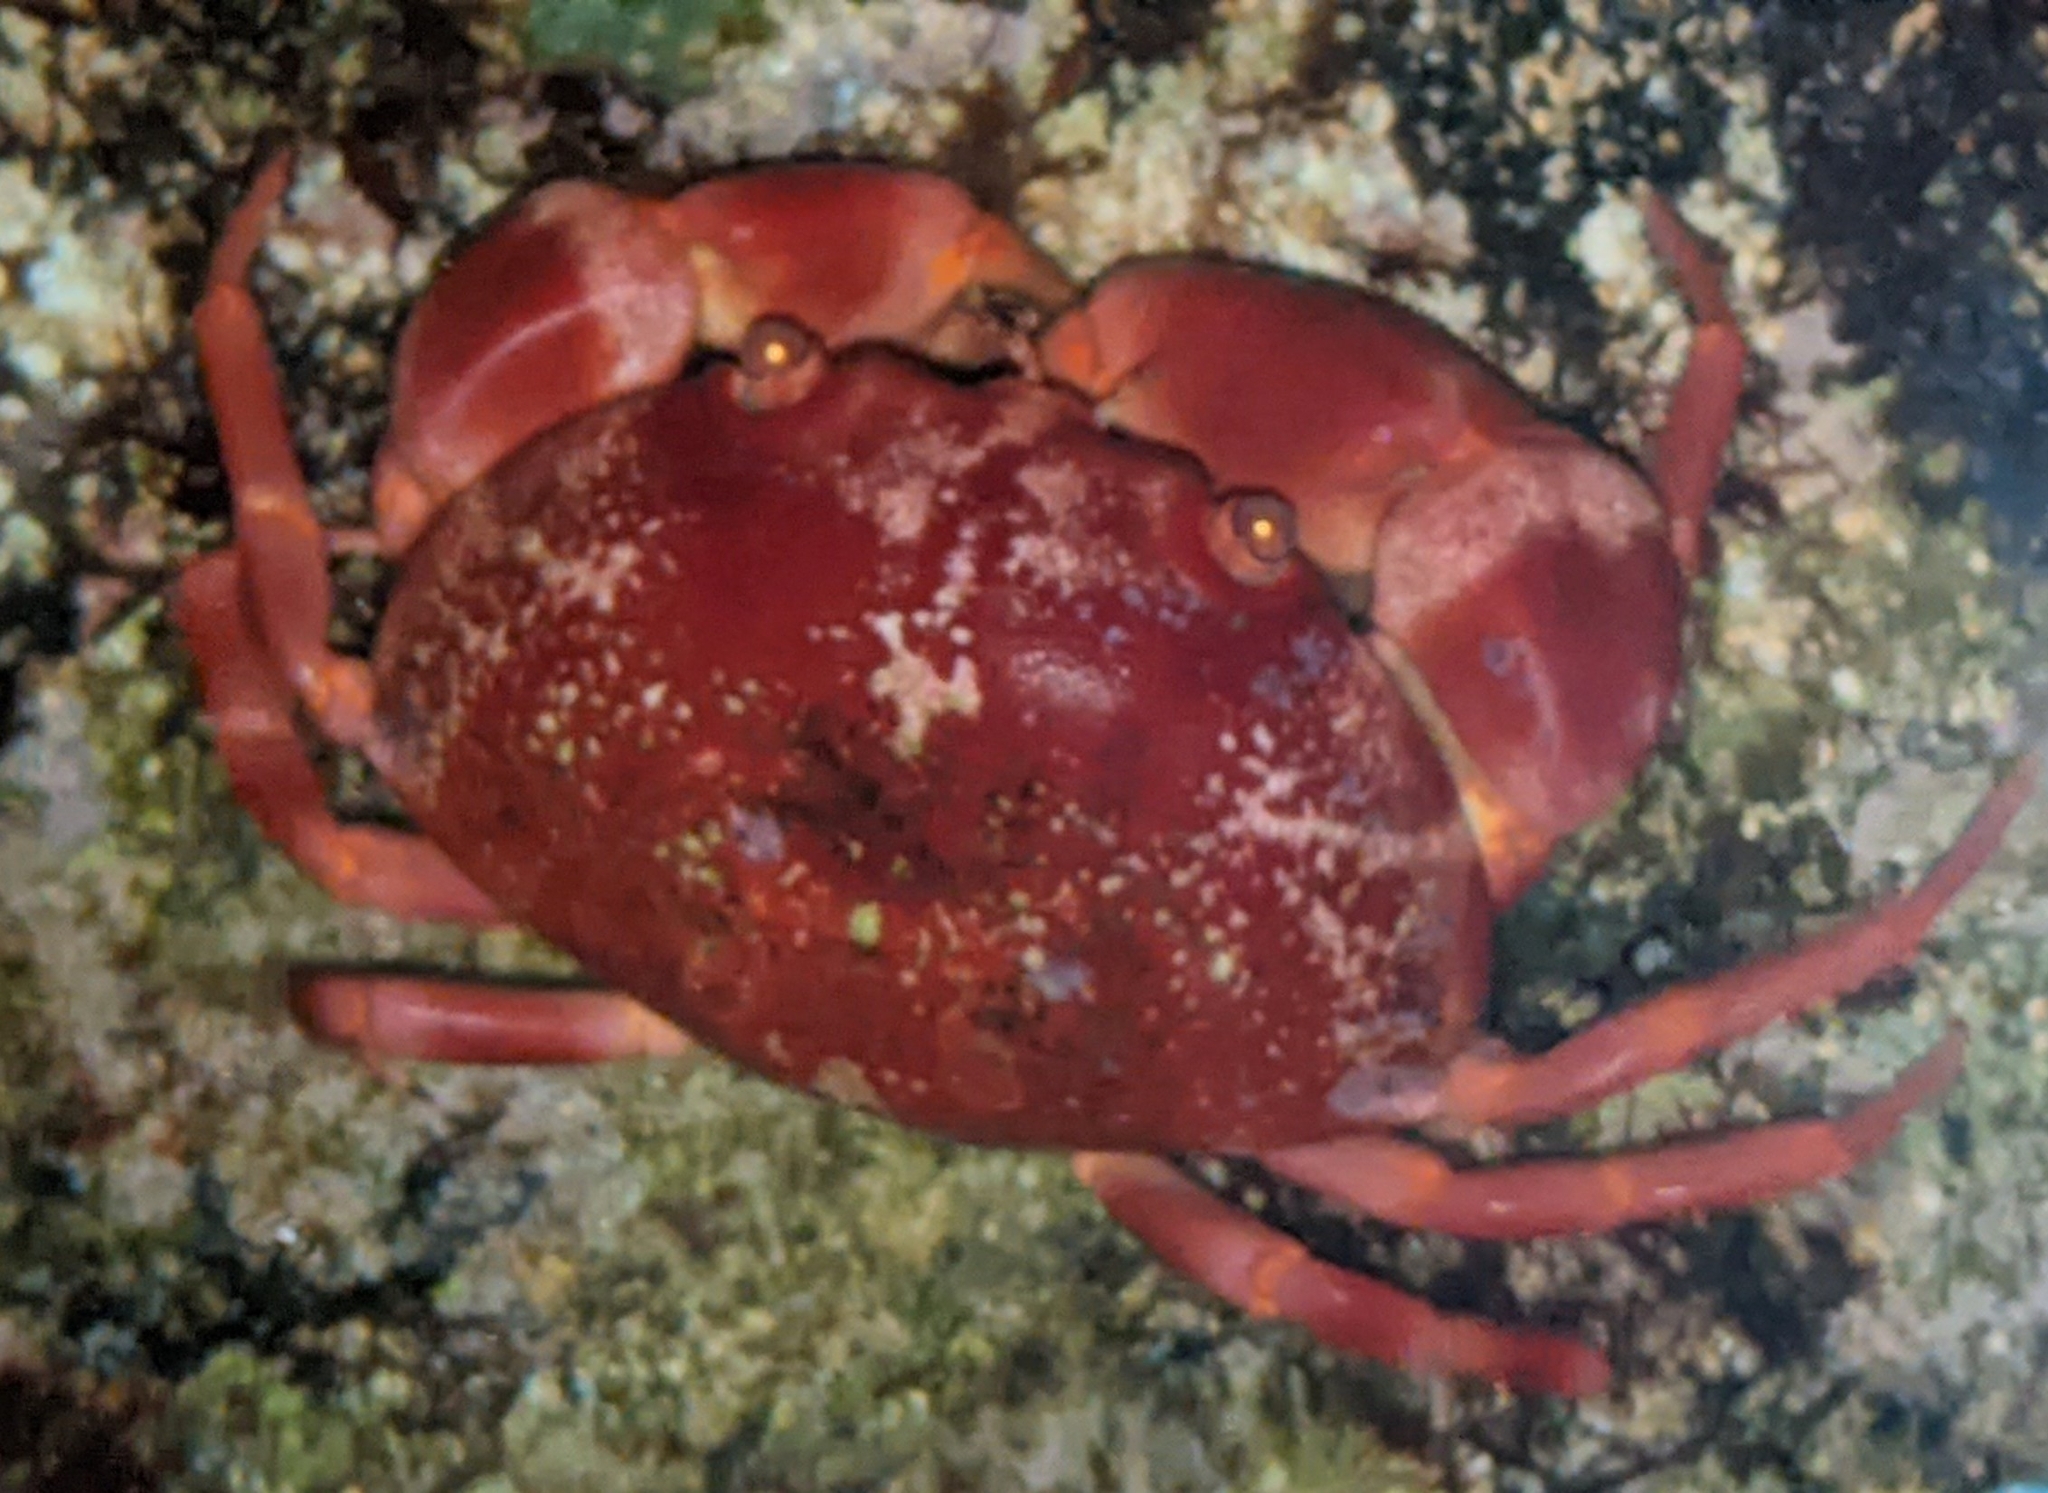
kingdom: Animalia
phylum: Arthropoda
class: Malacostraca
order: Decapoda
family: Carpiliidae
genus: Carpilius
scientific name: Carpilius convexus
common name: Convex reef crab
